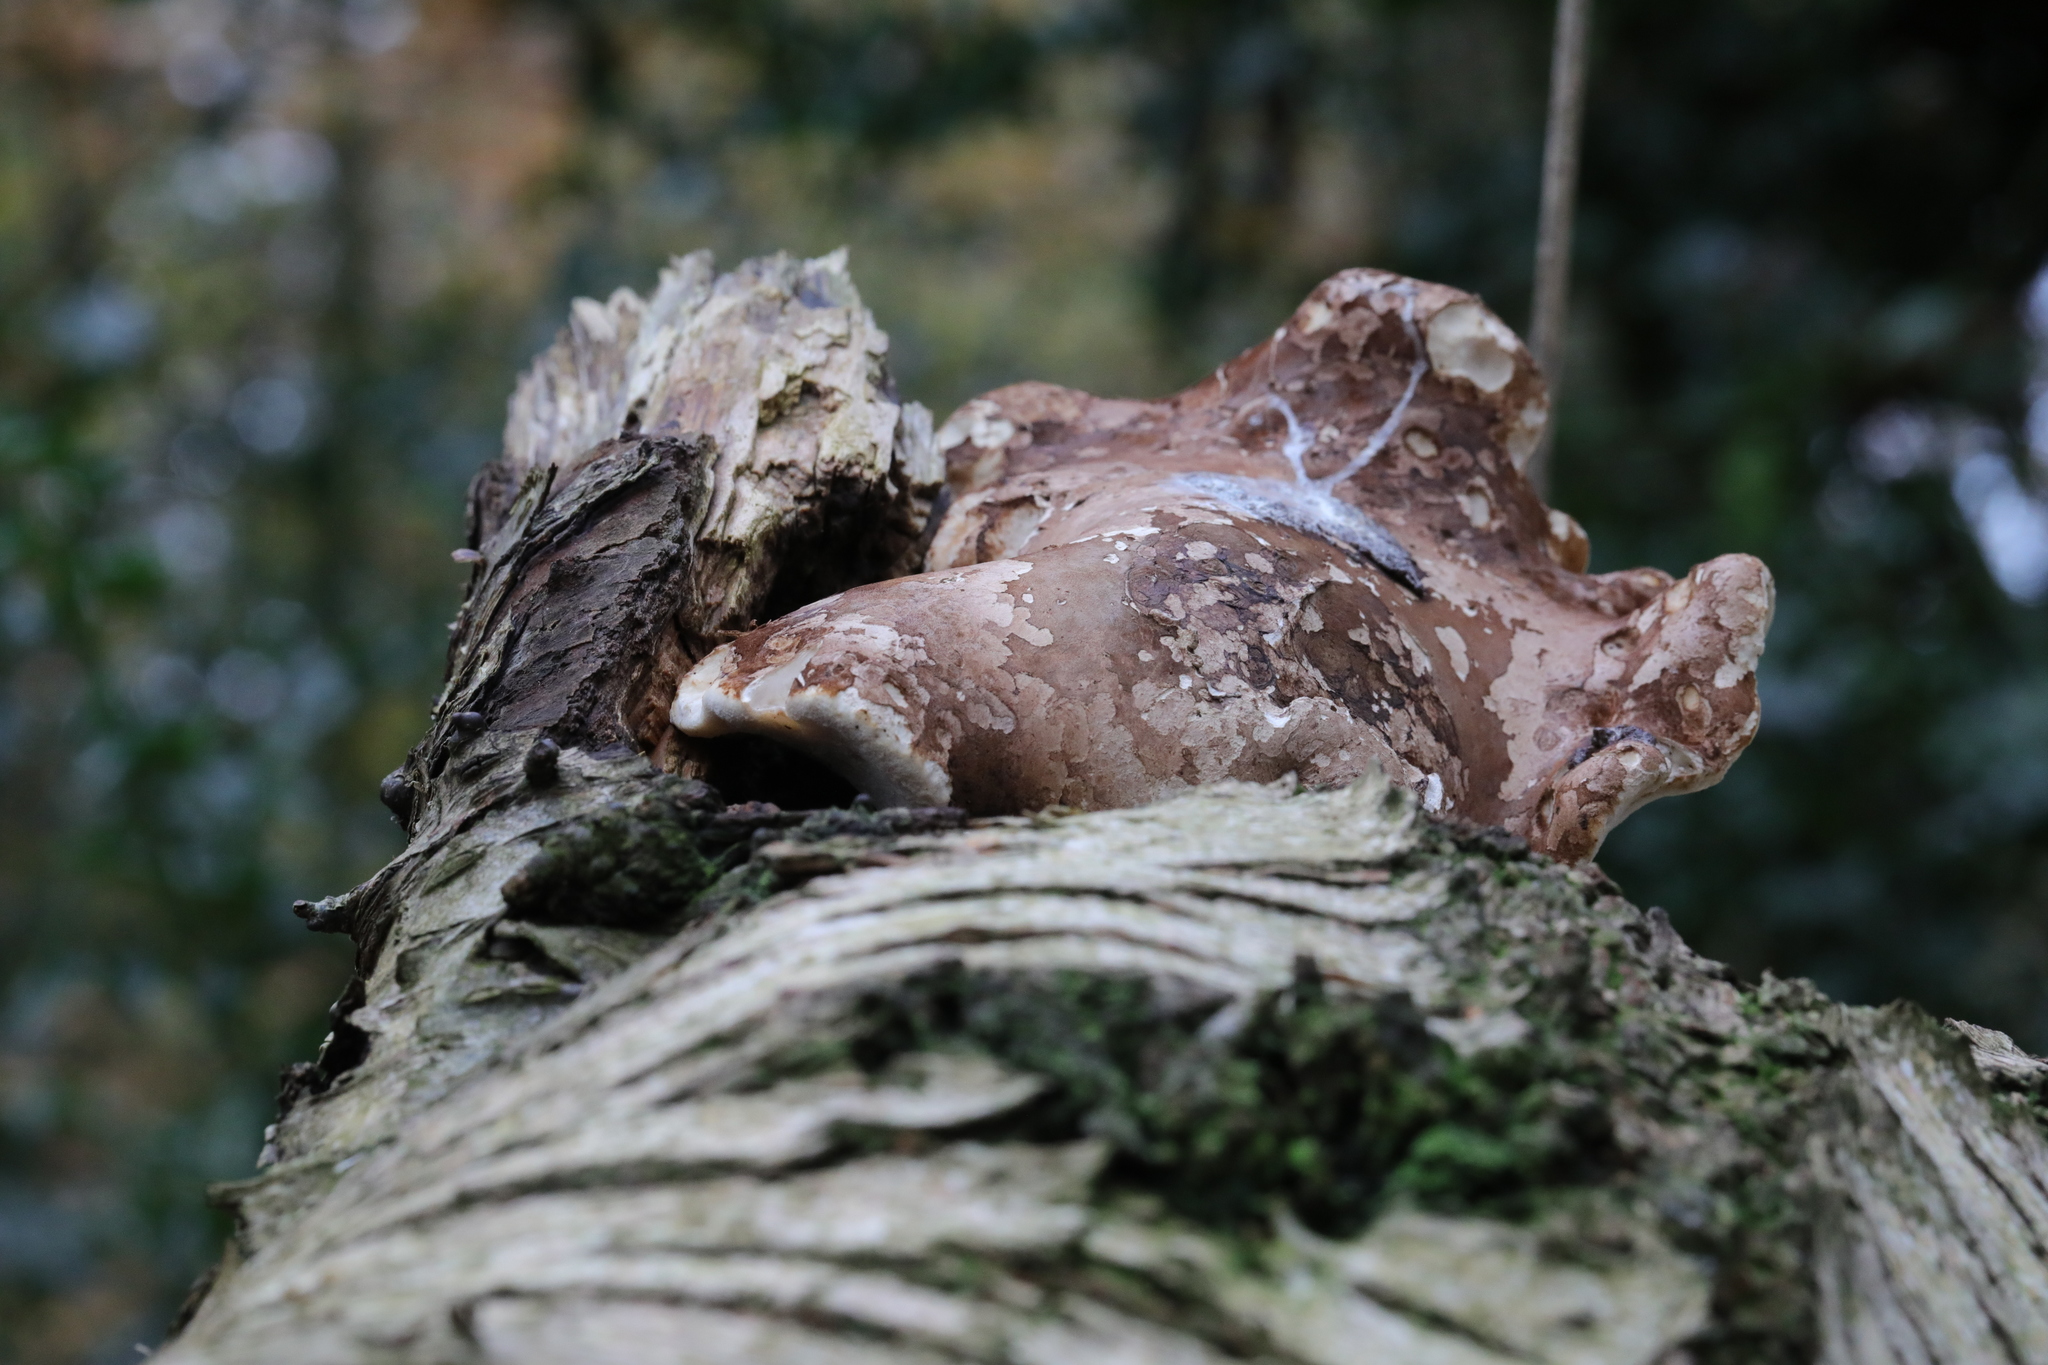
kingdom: Fungi
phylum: Basidiomycota
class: Agaricomycetes
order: Polyporales
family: Fomitopsidaceae
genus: Fomitopsis
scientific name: Fomitopsis betulina
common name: Birch polypore
